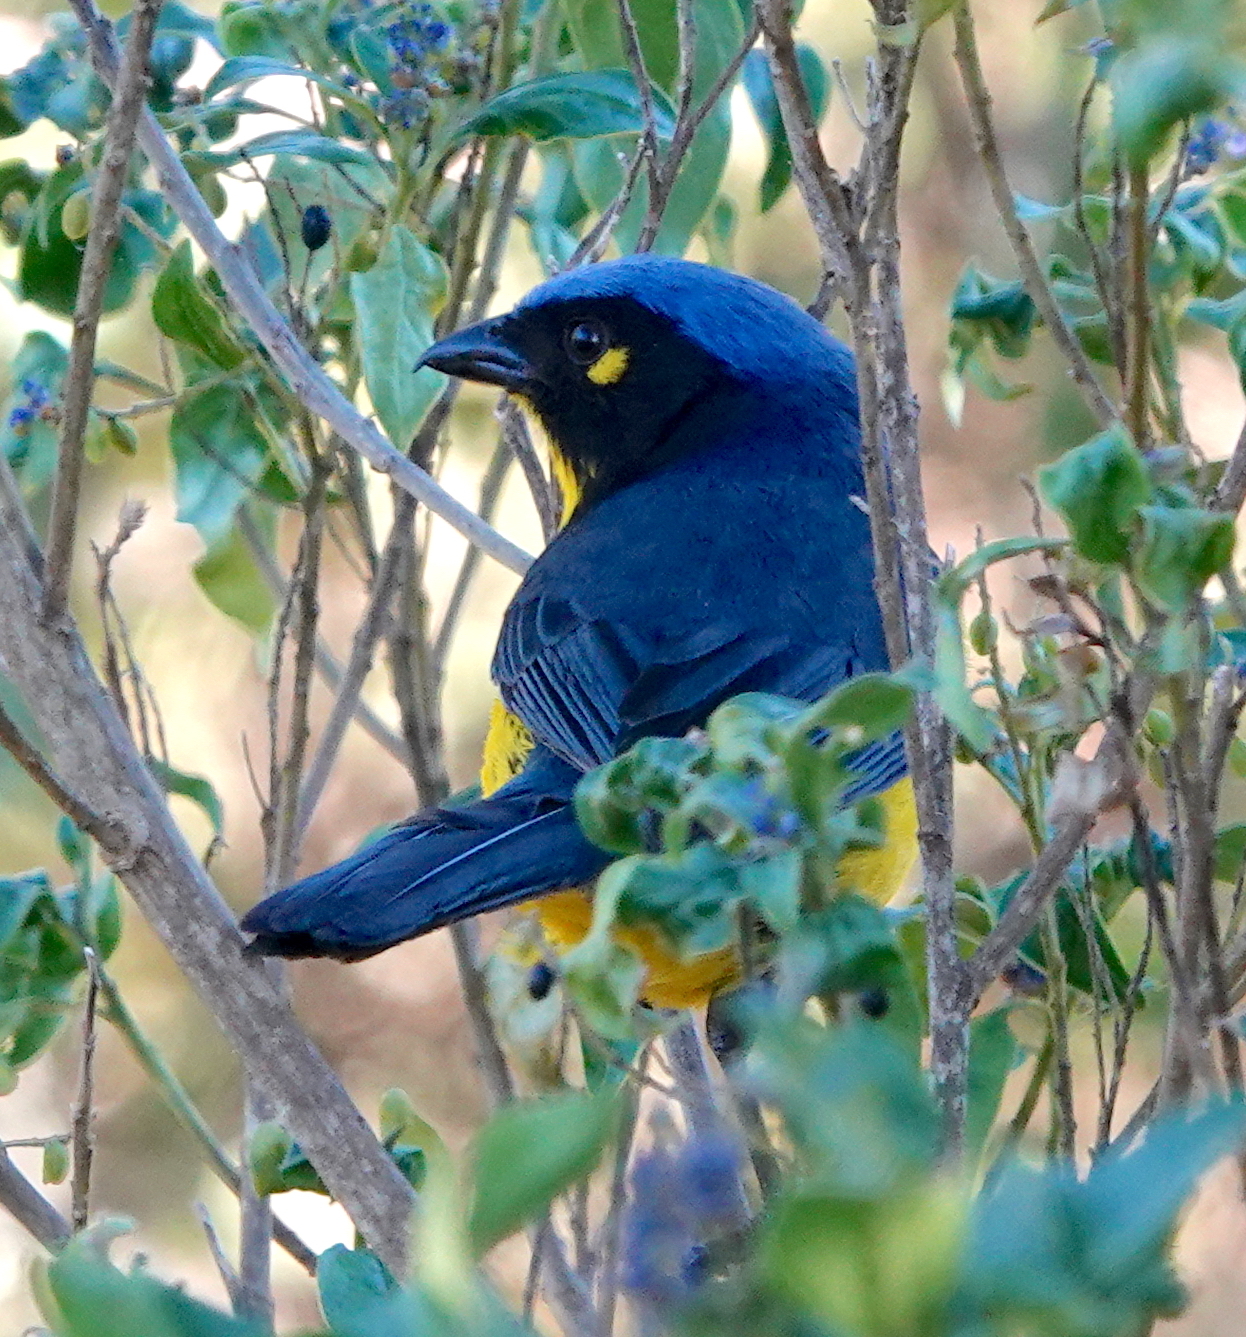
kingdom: Animalia
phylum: Chordata
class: Aves
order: Passeriformes
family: Thraupidae
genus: Anisognathus
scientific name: Anisognathus melanogenys
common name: Santa marta mountain tanager
